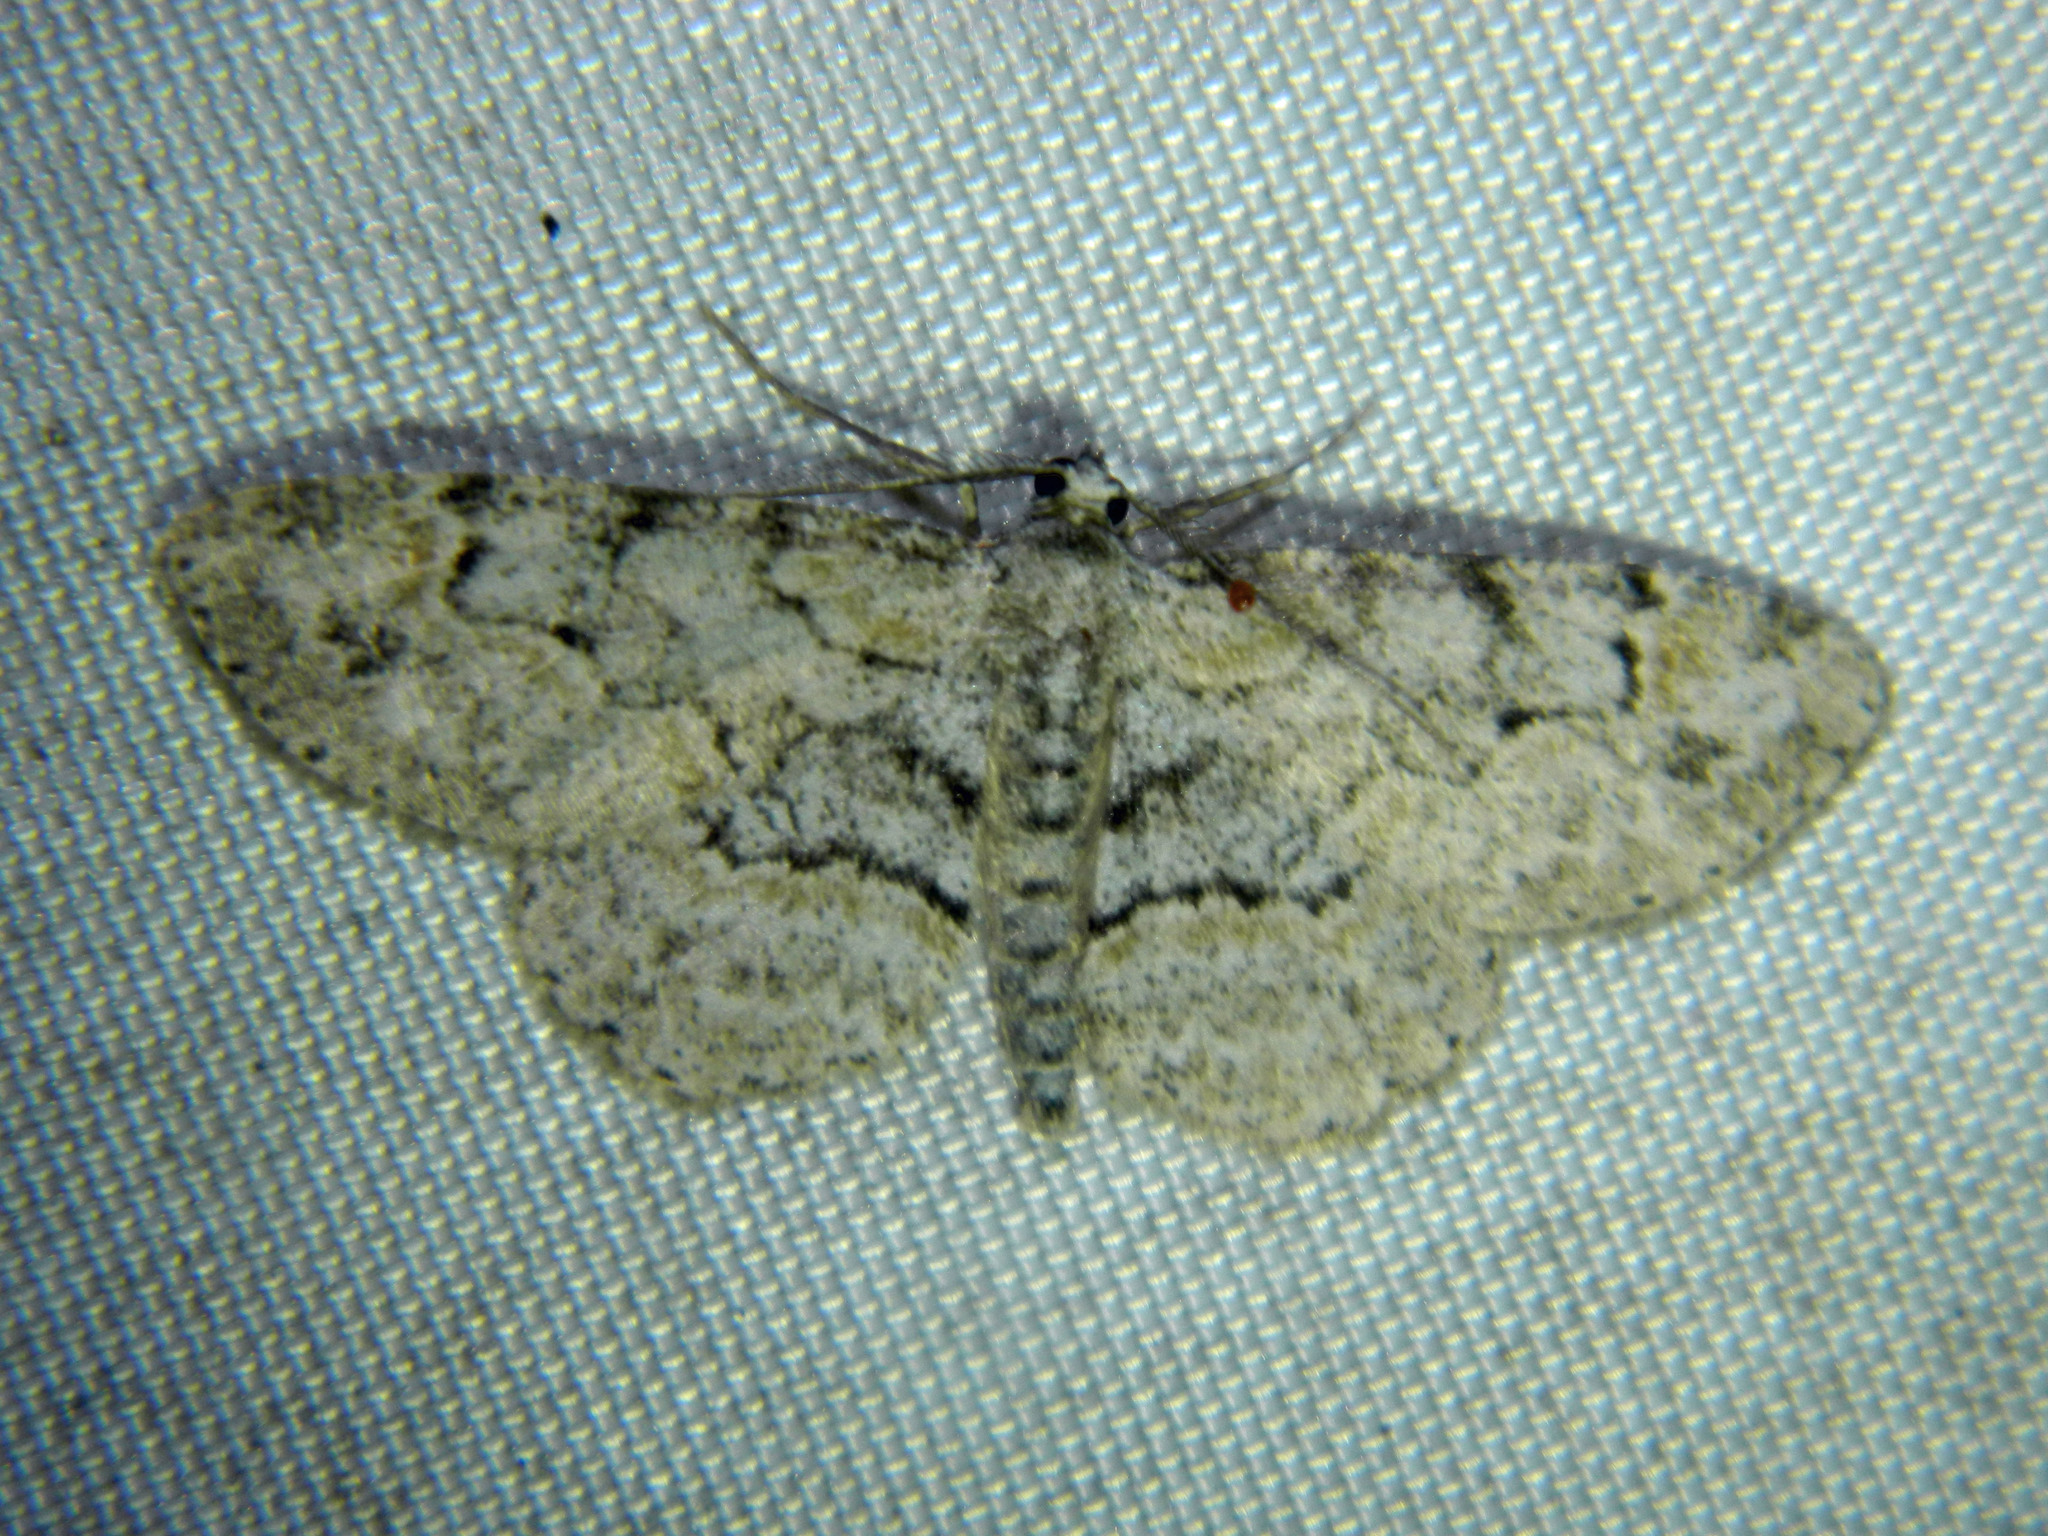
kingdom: Animalia
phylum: Arthropoda
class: Insecta
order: Lepidoptera
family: Geometridae
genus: Iridopsis
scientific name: Iridopsis ephyraria
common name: Pale-winged gray
